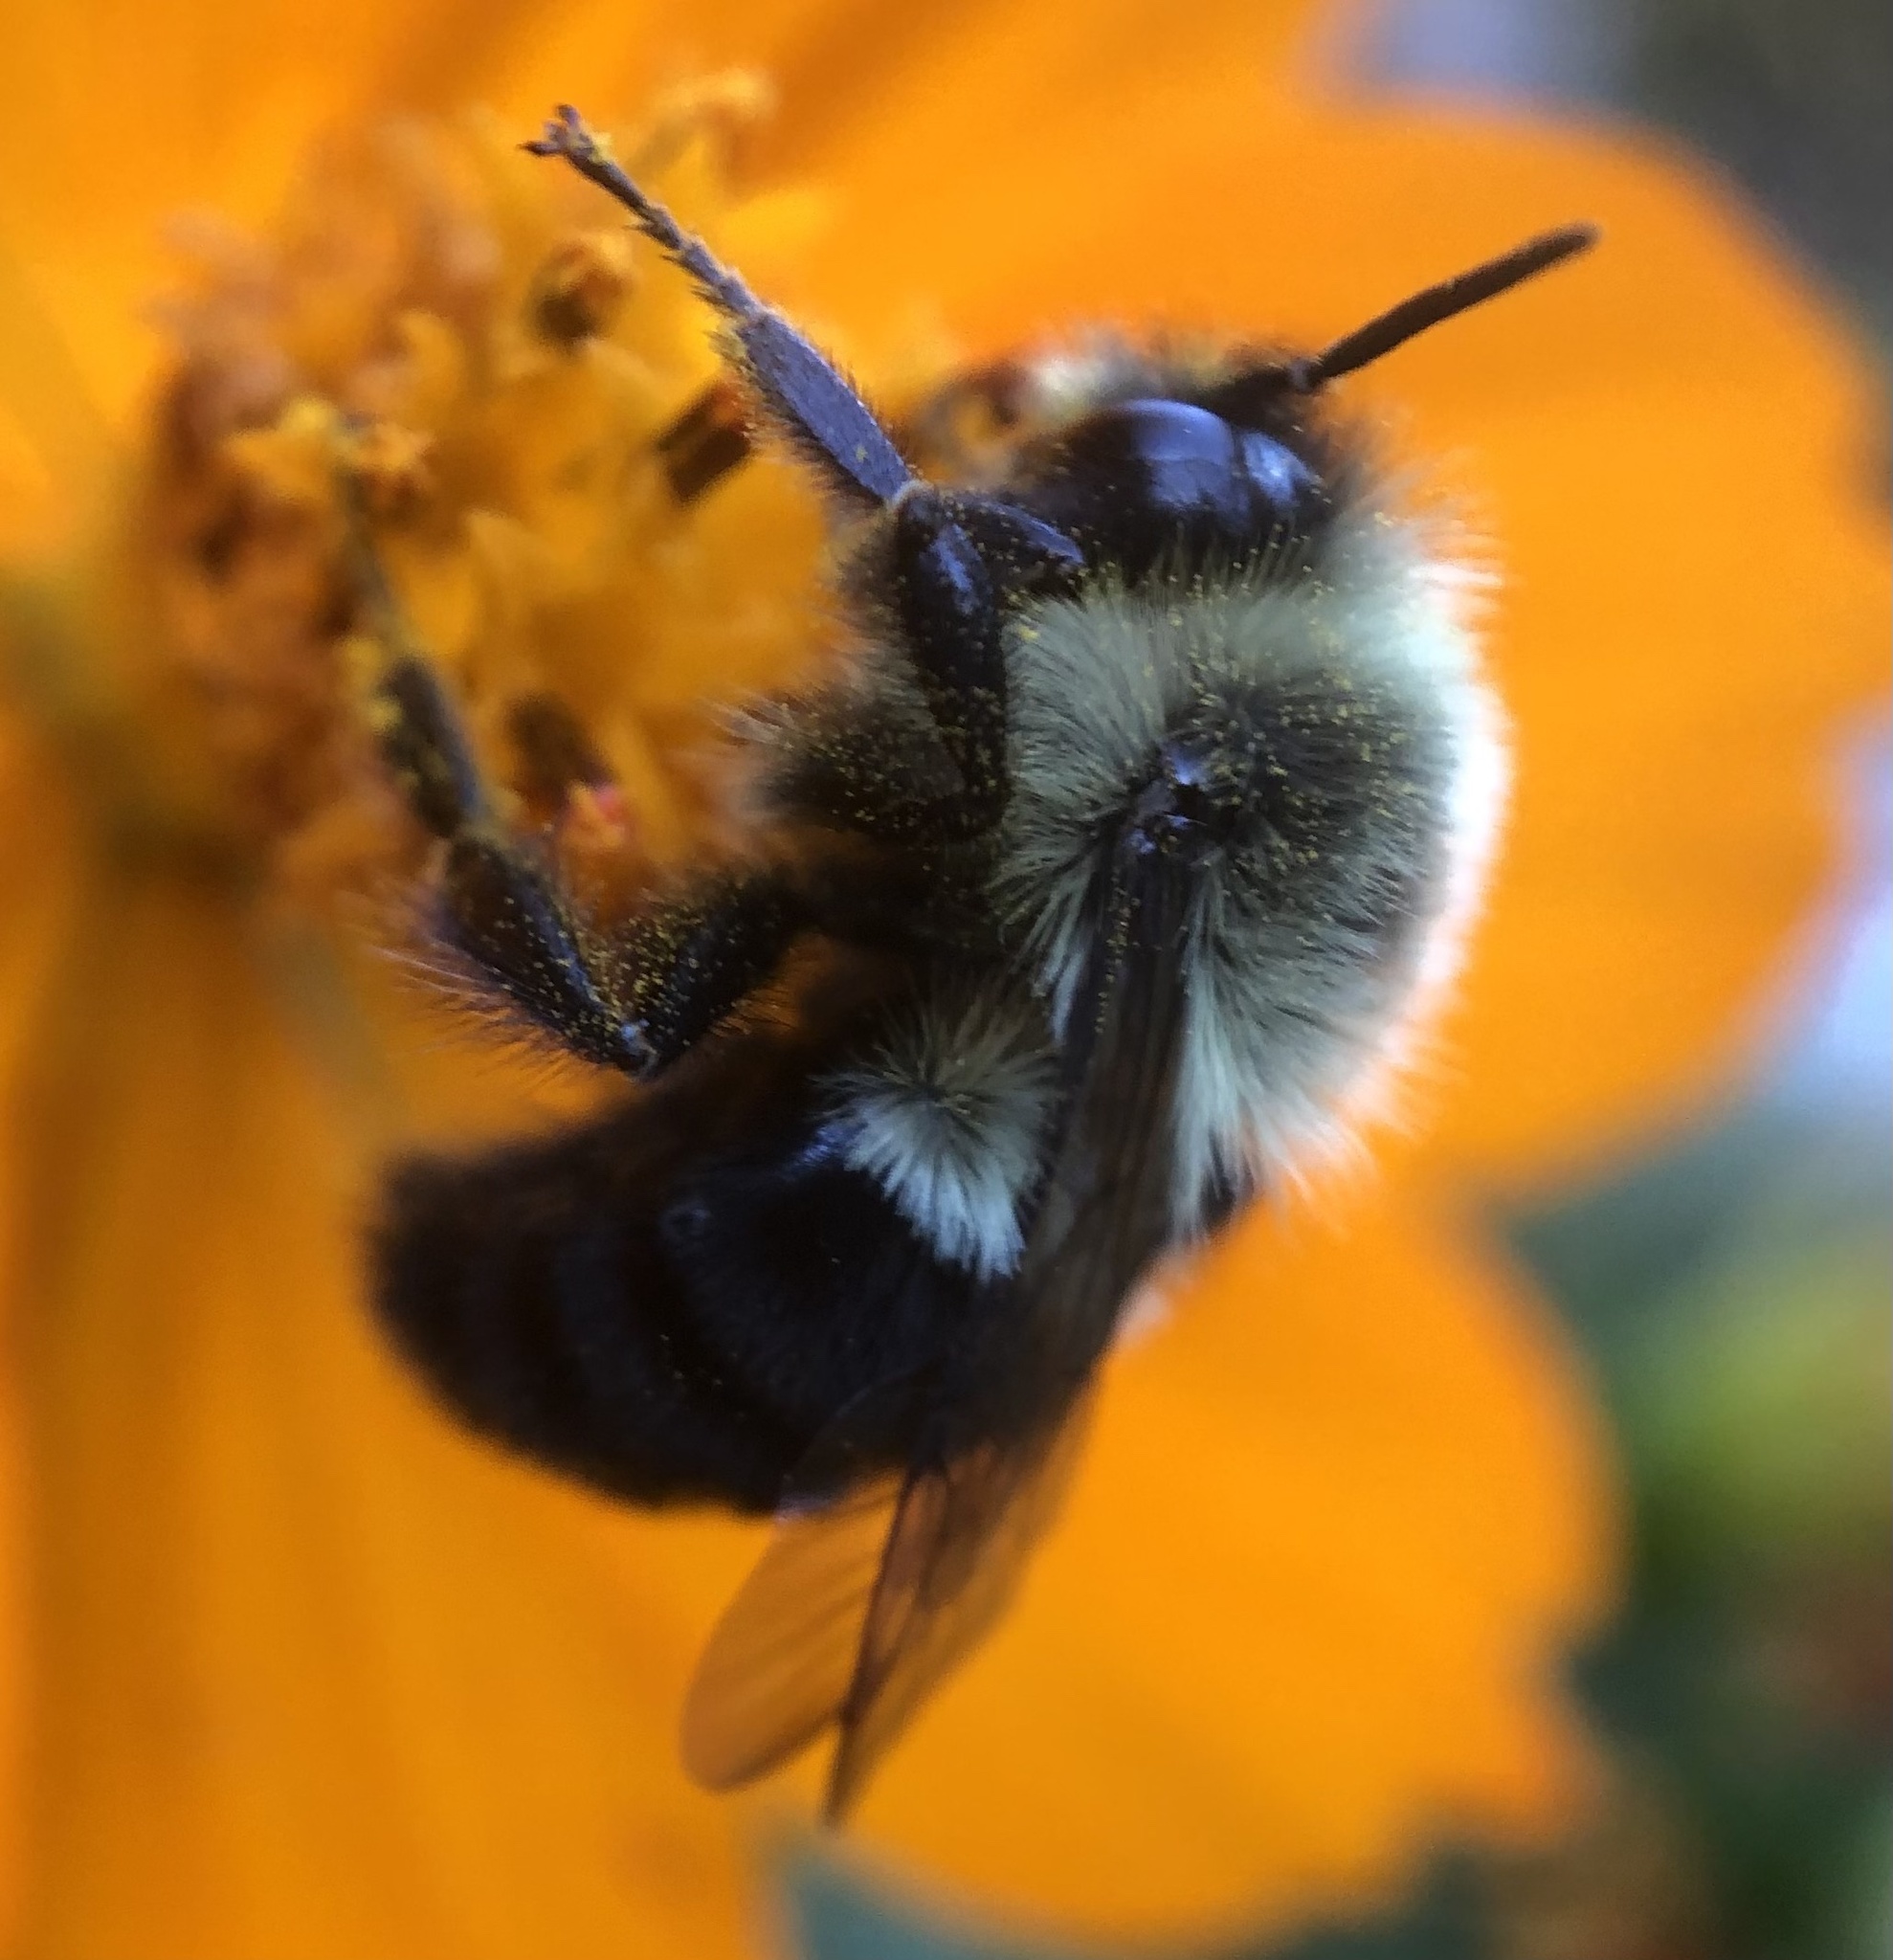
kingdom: Animalia
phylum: Arthropoda
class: Insecta
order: Hymenoptera
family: Apidae
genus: Bombus
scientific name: Bombus impatiens
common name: Common eastern bumble bee
